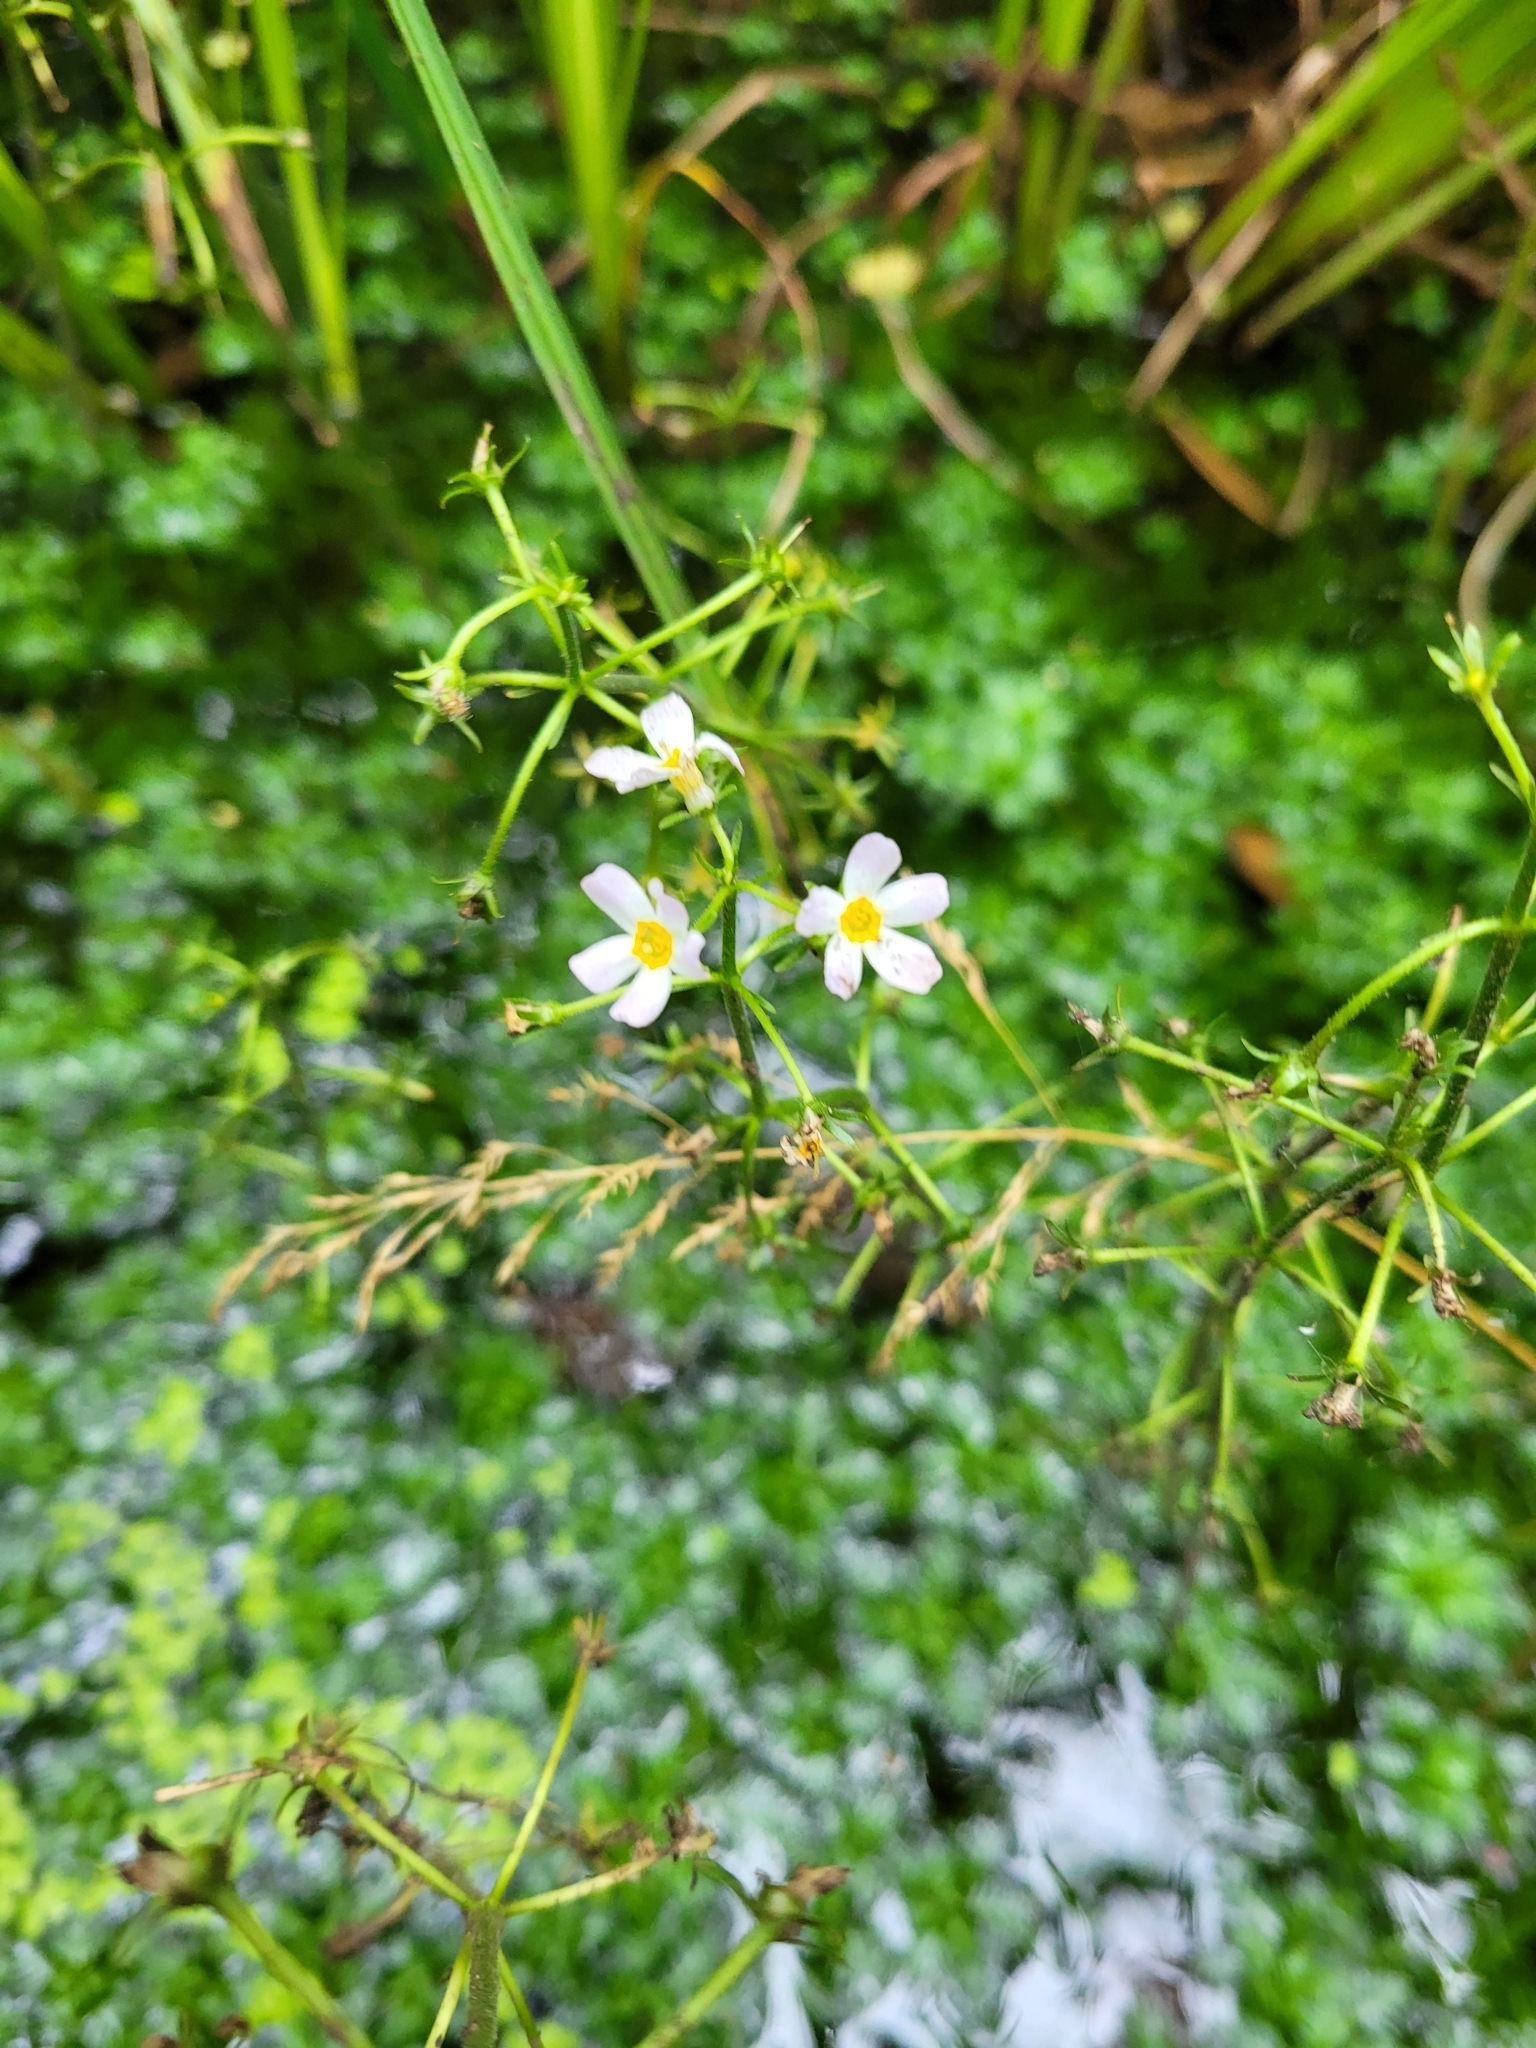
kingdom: Plantae
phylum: Tracheophyta
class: Magnoliopsida
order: Ericales
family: Primulaceae
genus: Hottonia
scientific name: Hottonia palustris
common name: Water-violet
